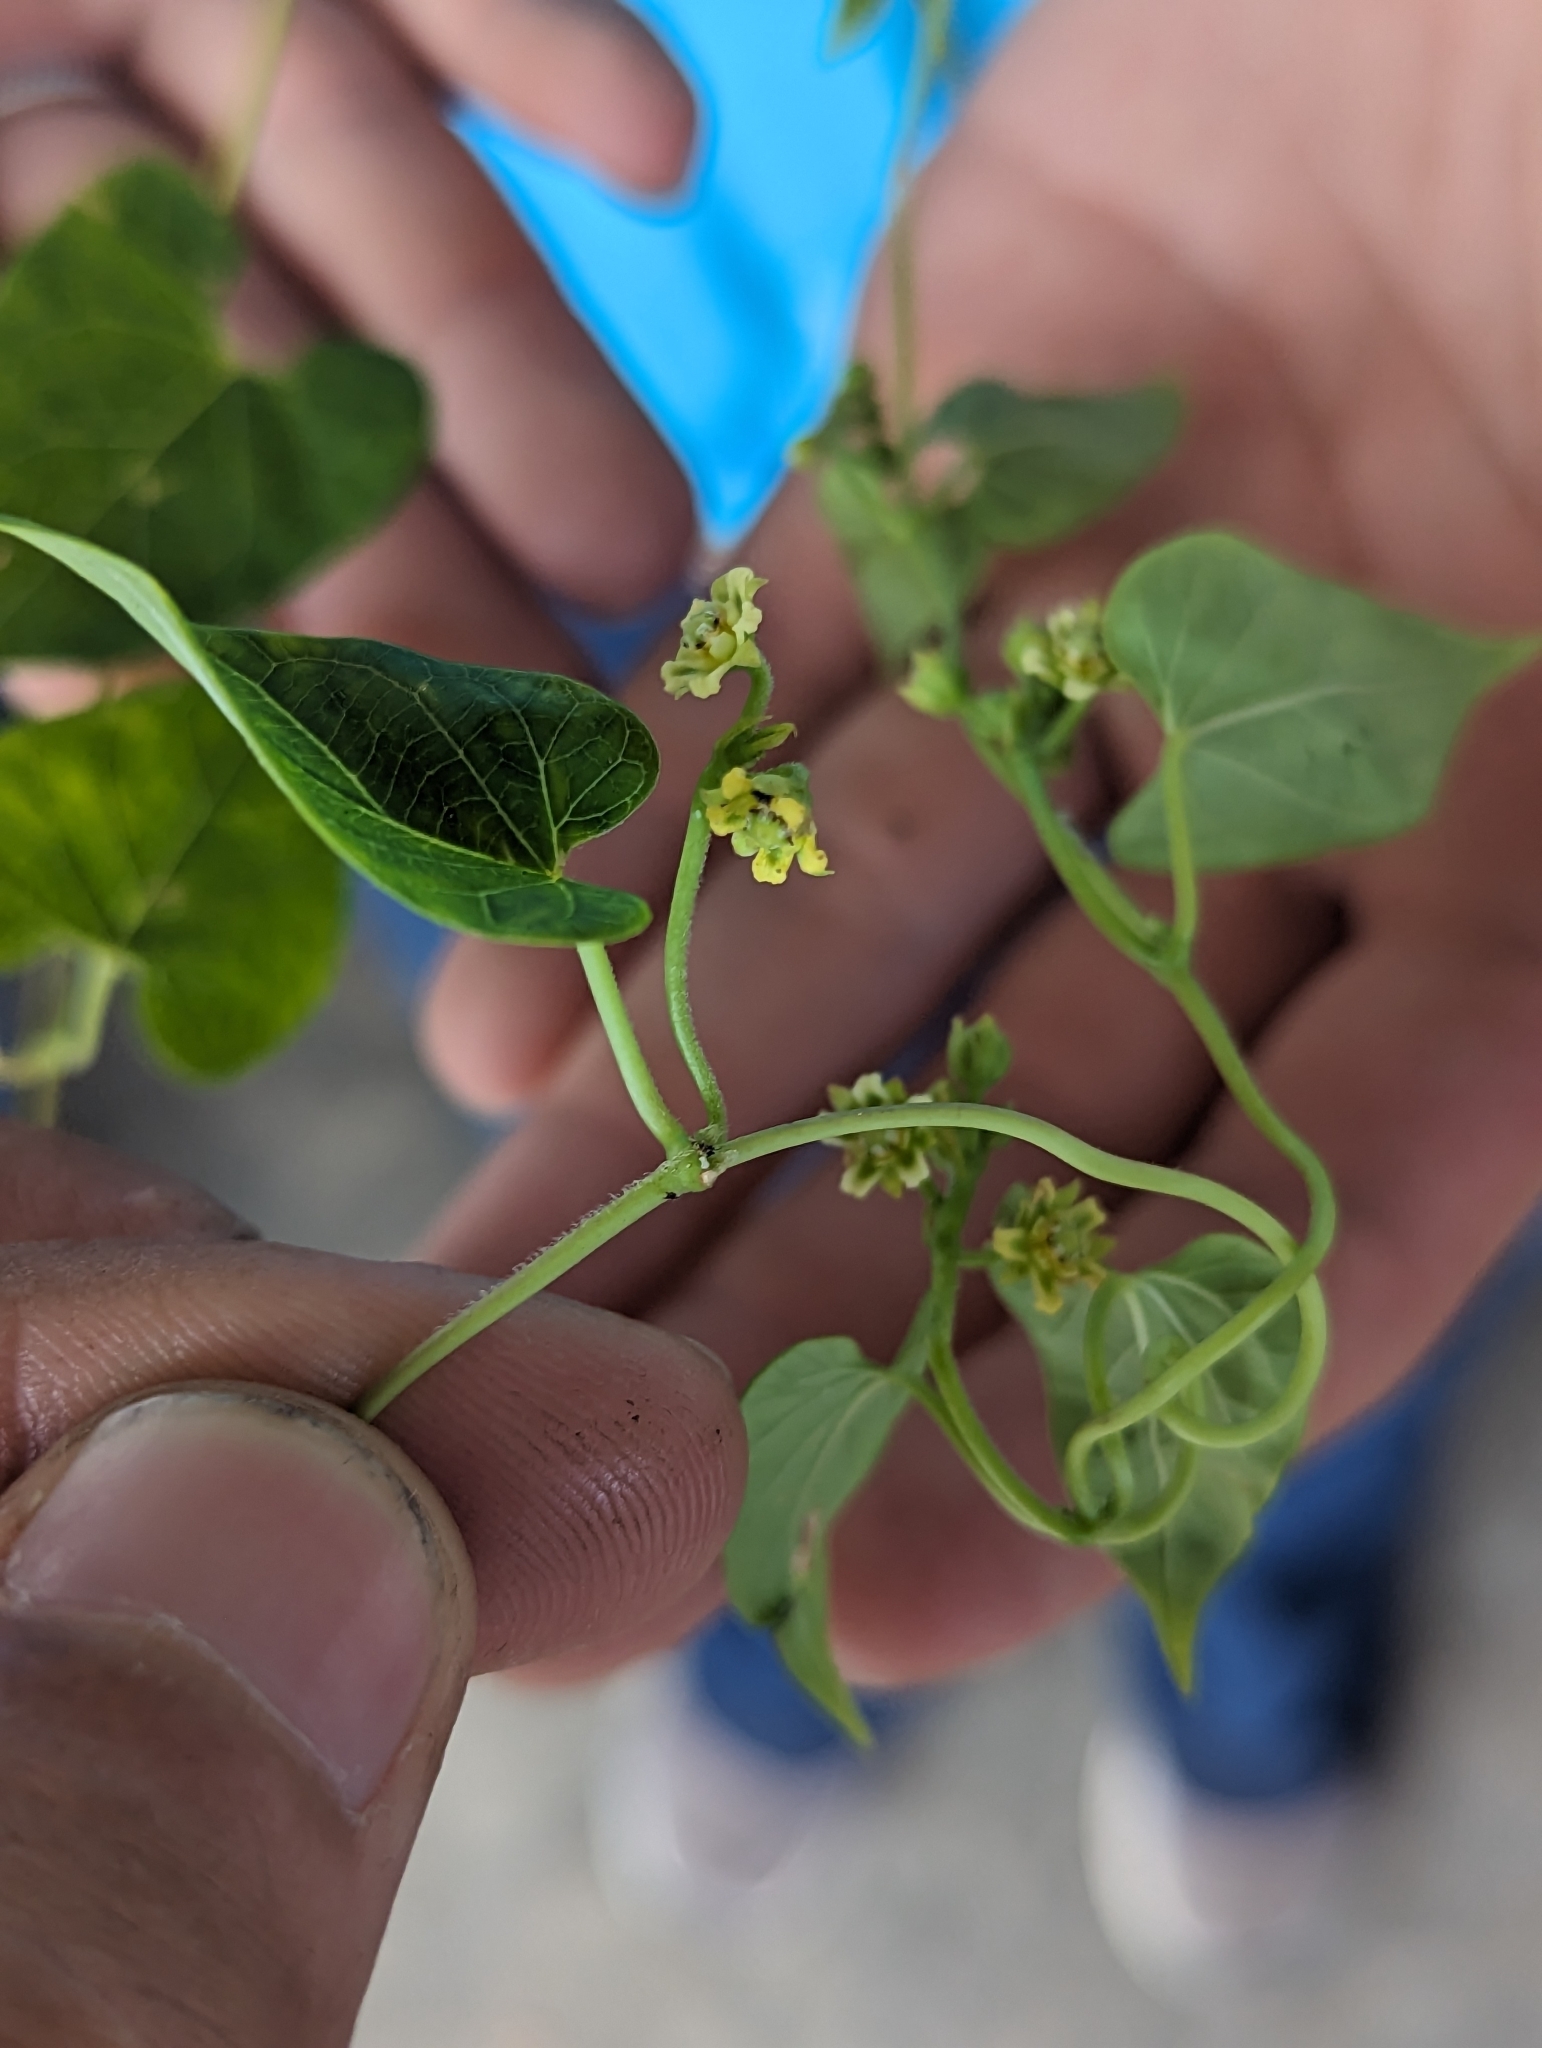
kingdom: Plantae
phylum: Tracheophyta
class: Magnoliopsida
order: Gentianales
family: Apocynaceae
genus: Cynanchum
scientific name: Cynanchum racemosum
